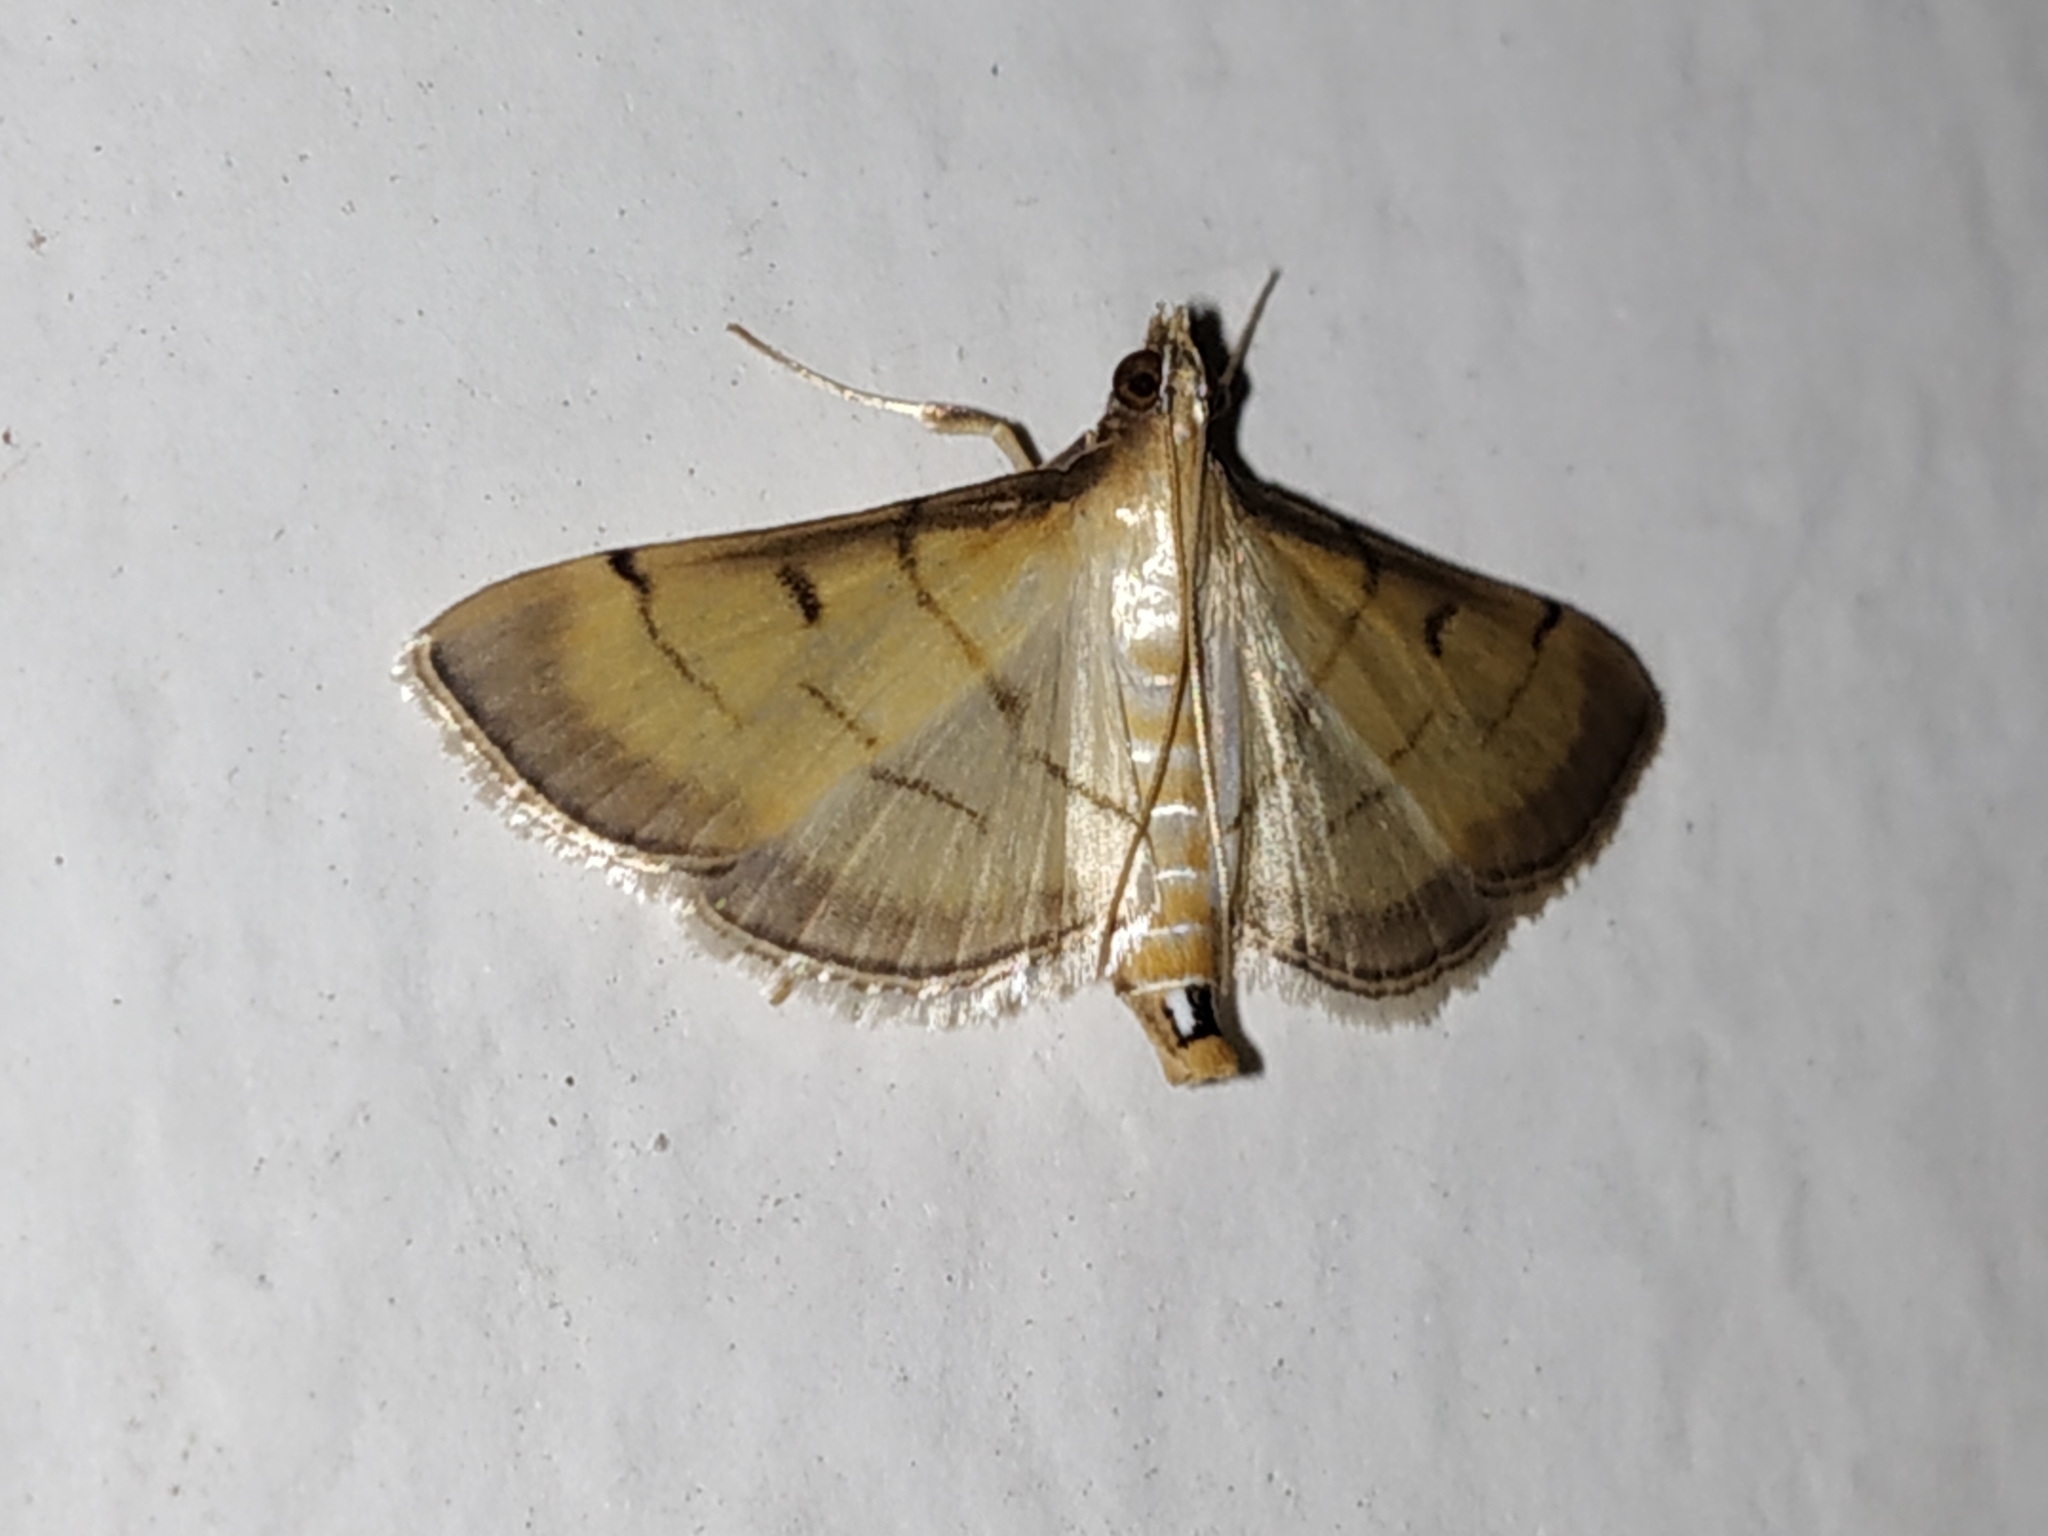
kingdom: Animalia
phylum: Arthropoda
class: Insecta
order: Lepidoptera
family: Crambidae
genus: Cnaphalocrocis
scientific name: Cnaphalocrocis patnalis
